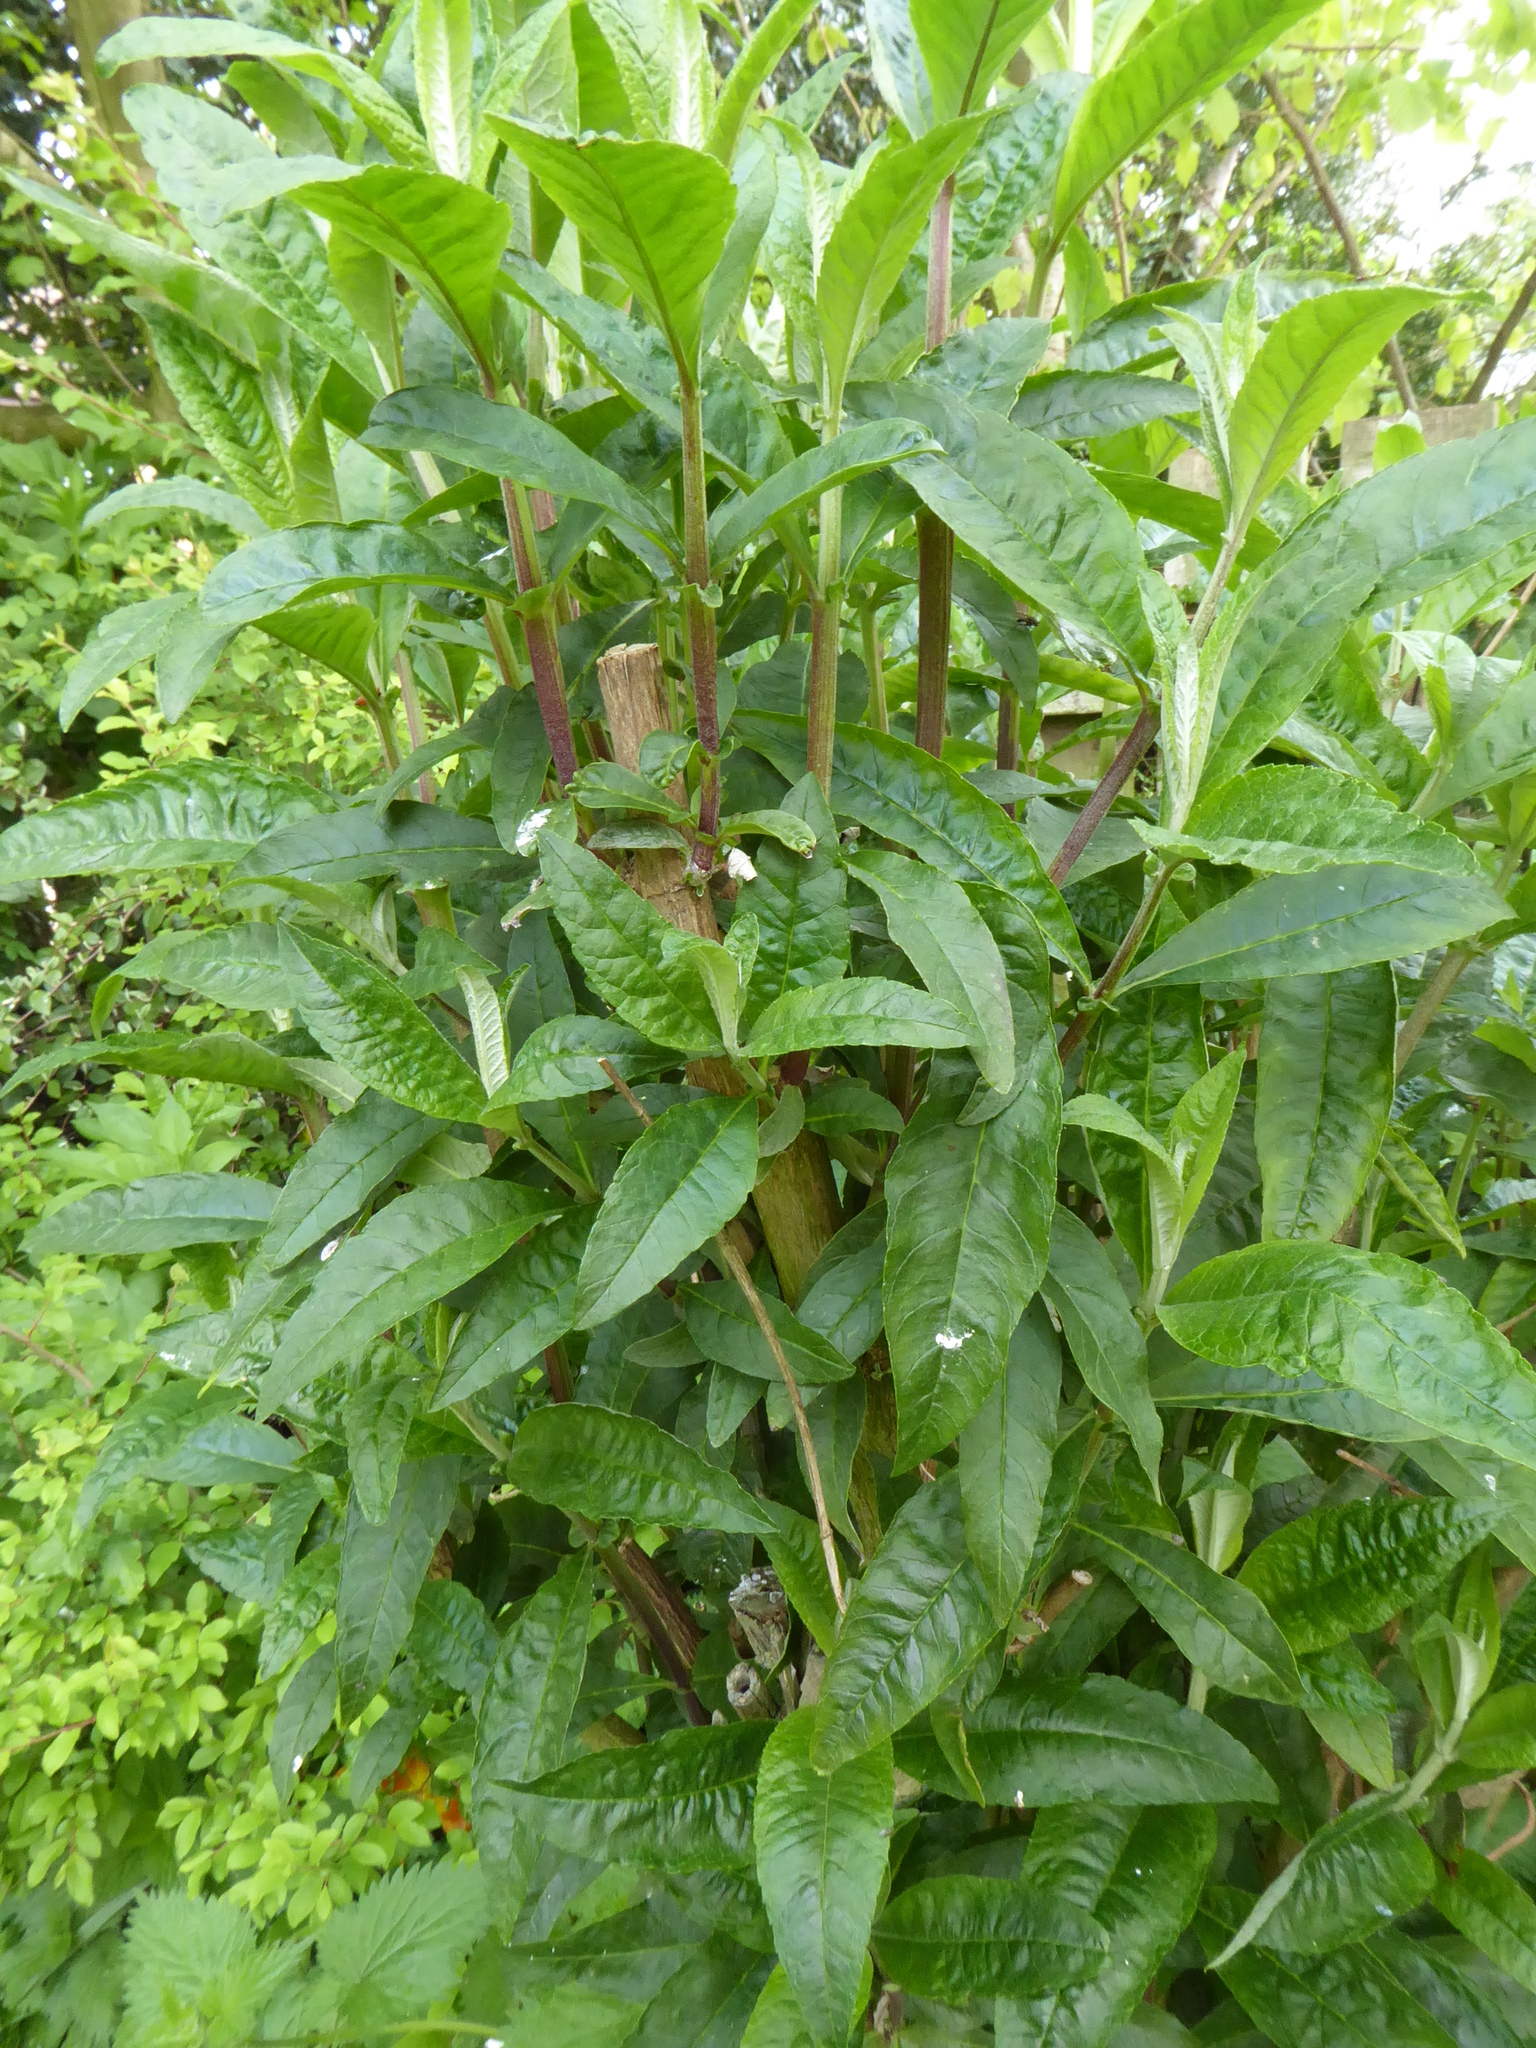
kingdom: Plantae
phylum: Tracheophyta
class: Magnoliopsida
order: Lamiales
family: Scrophulariaceae
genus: Buddleja
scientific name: Buddleja davidii
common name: Butterfly-bush
